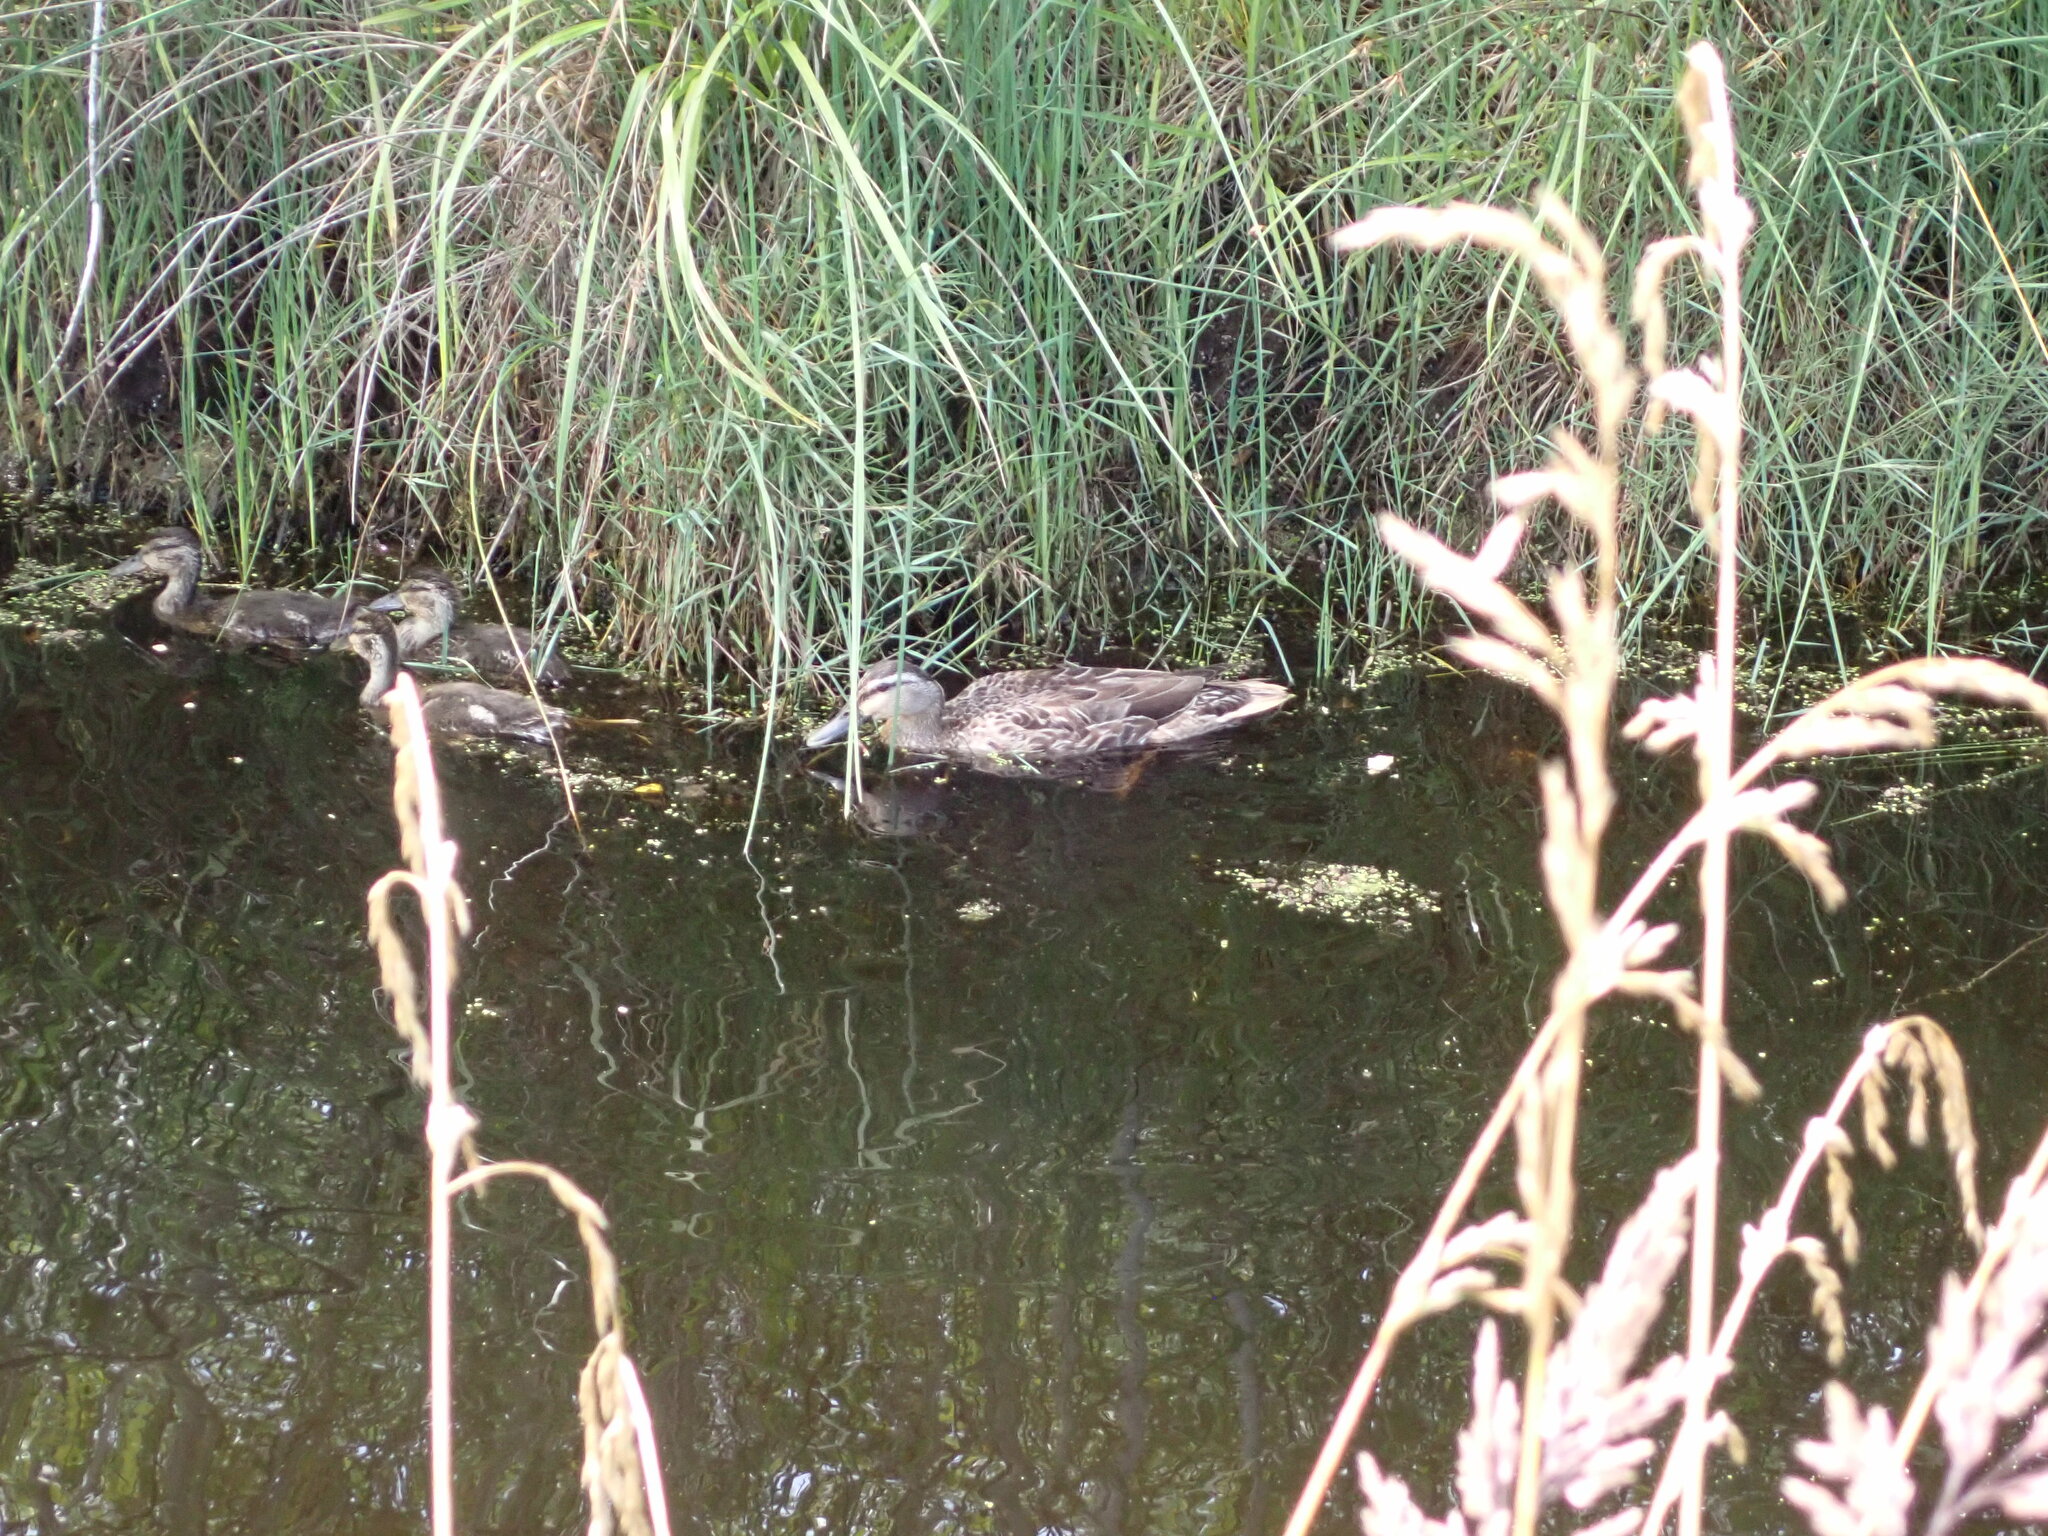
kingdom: Animalia
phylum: Chordata
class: Aves
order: Anseriformes
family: Anatidae
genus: Anas
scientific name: Anas platyrhynchos
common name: Mallard
